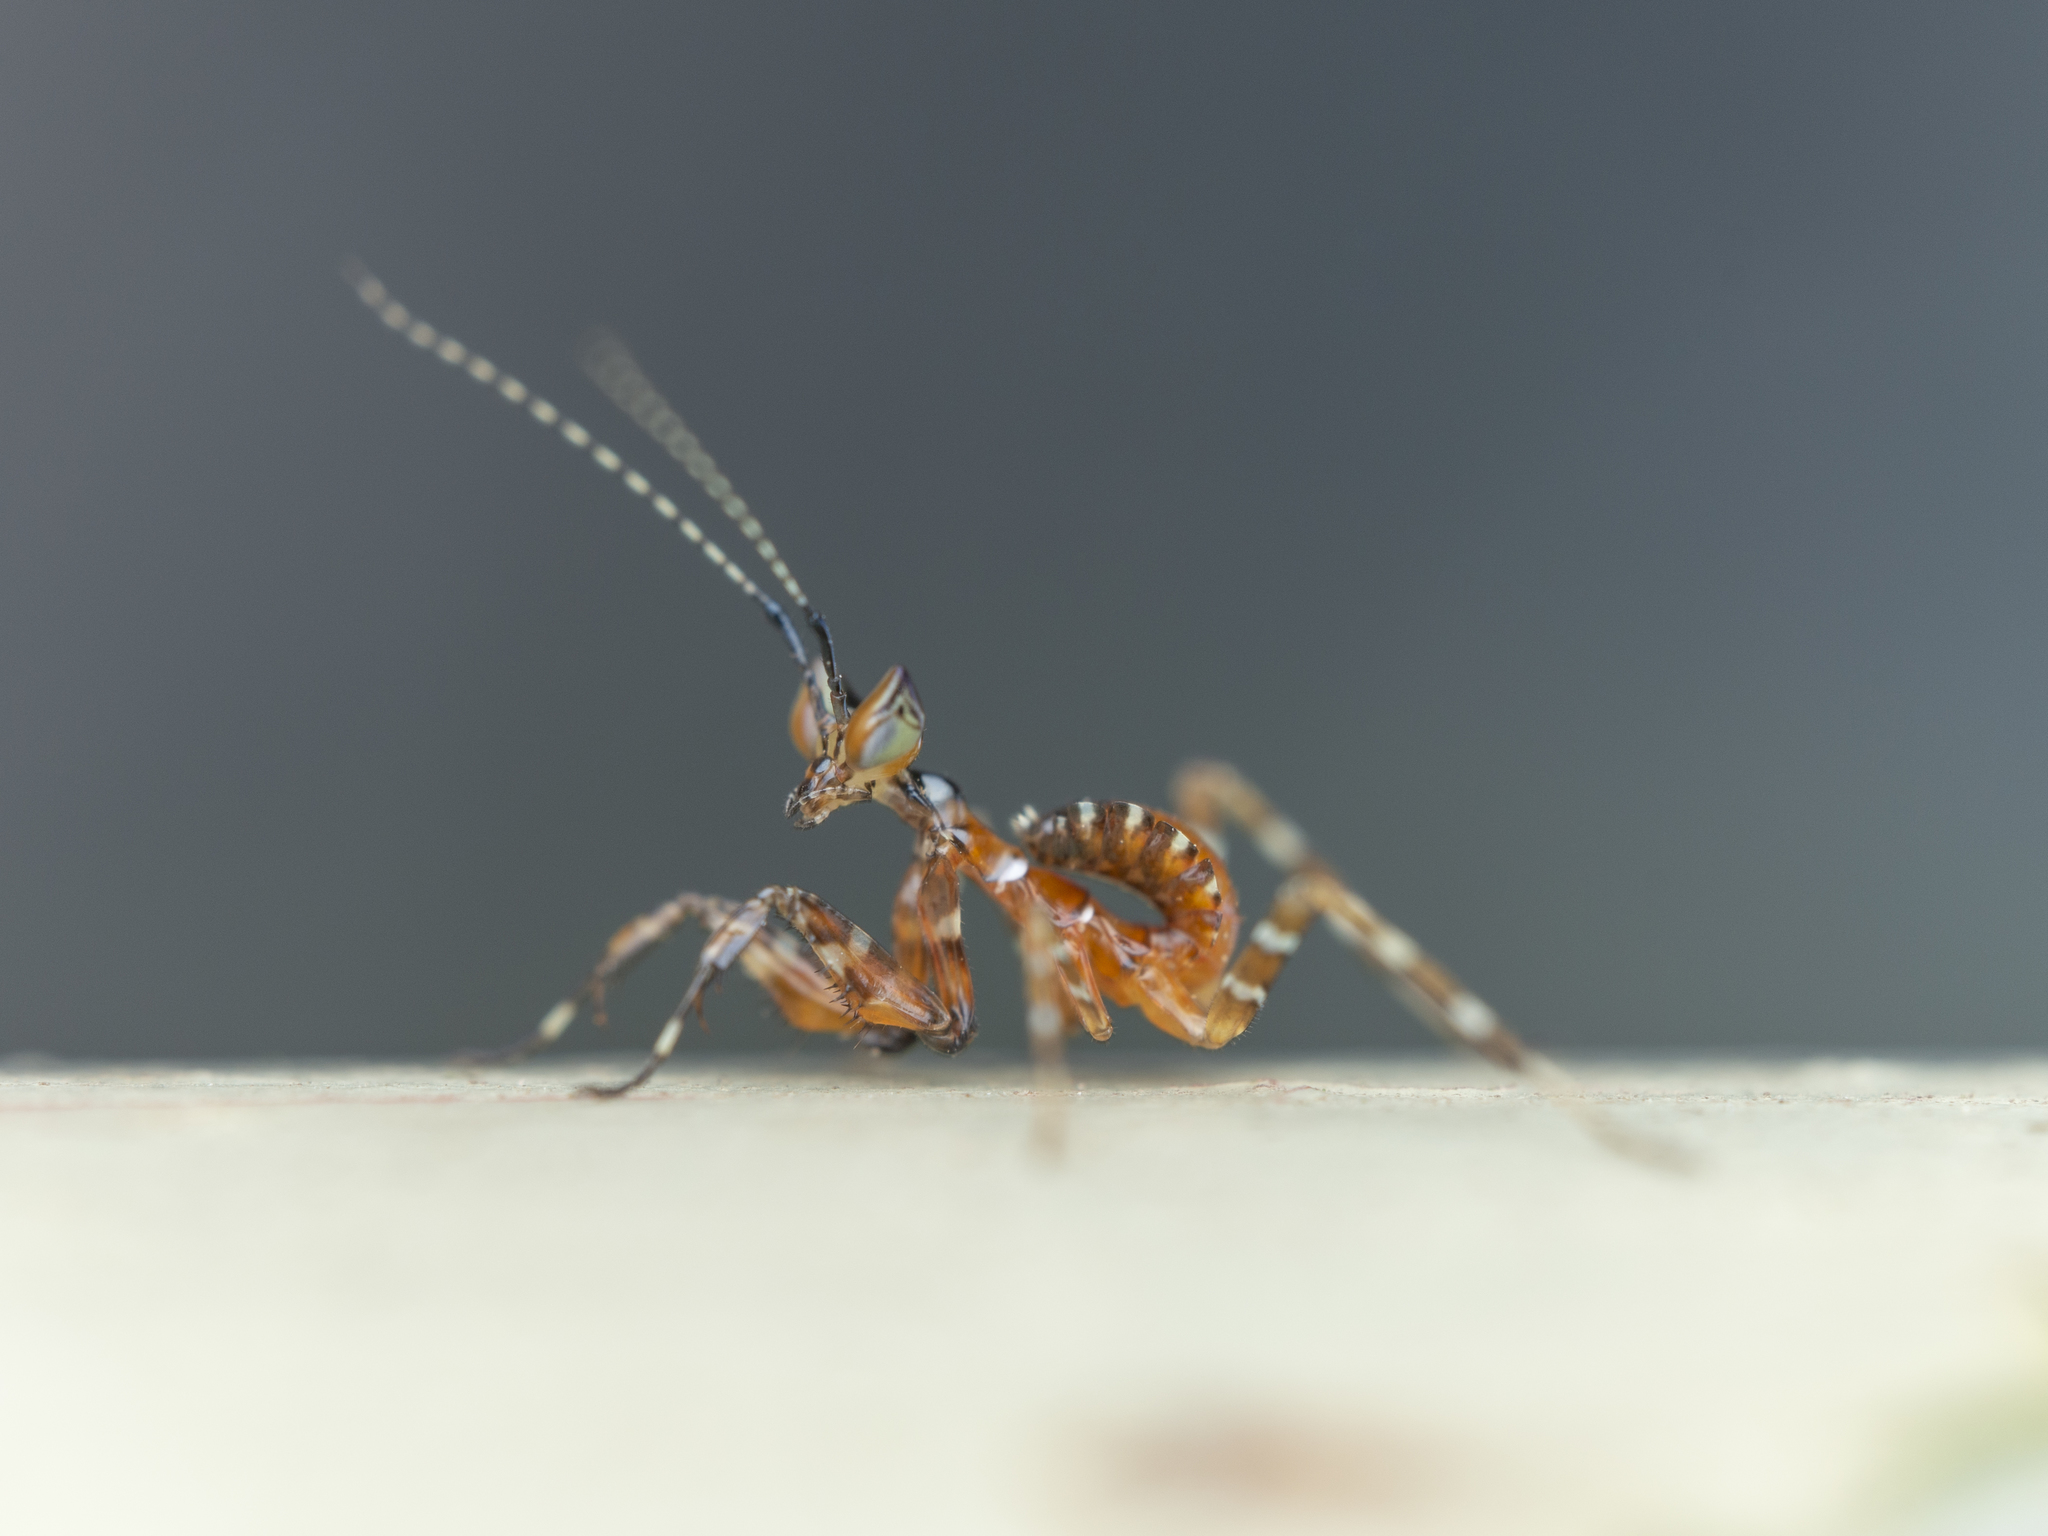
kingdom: Animalia
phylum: Arthropoda
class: Insecta
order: Mantodea
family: Hymenopodidae
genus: Creobroter
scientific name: Creobroter gemmatus
